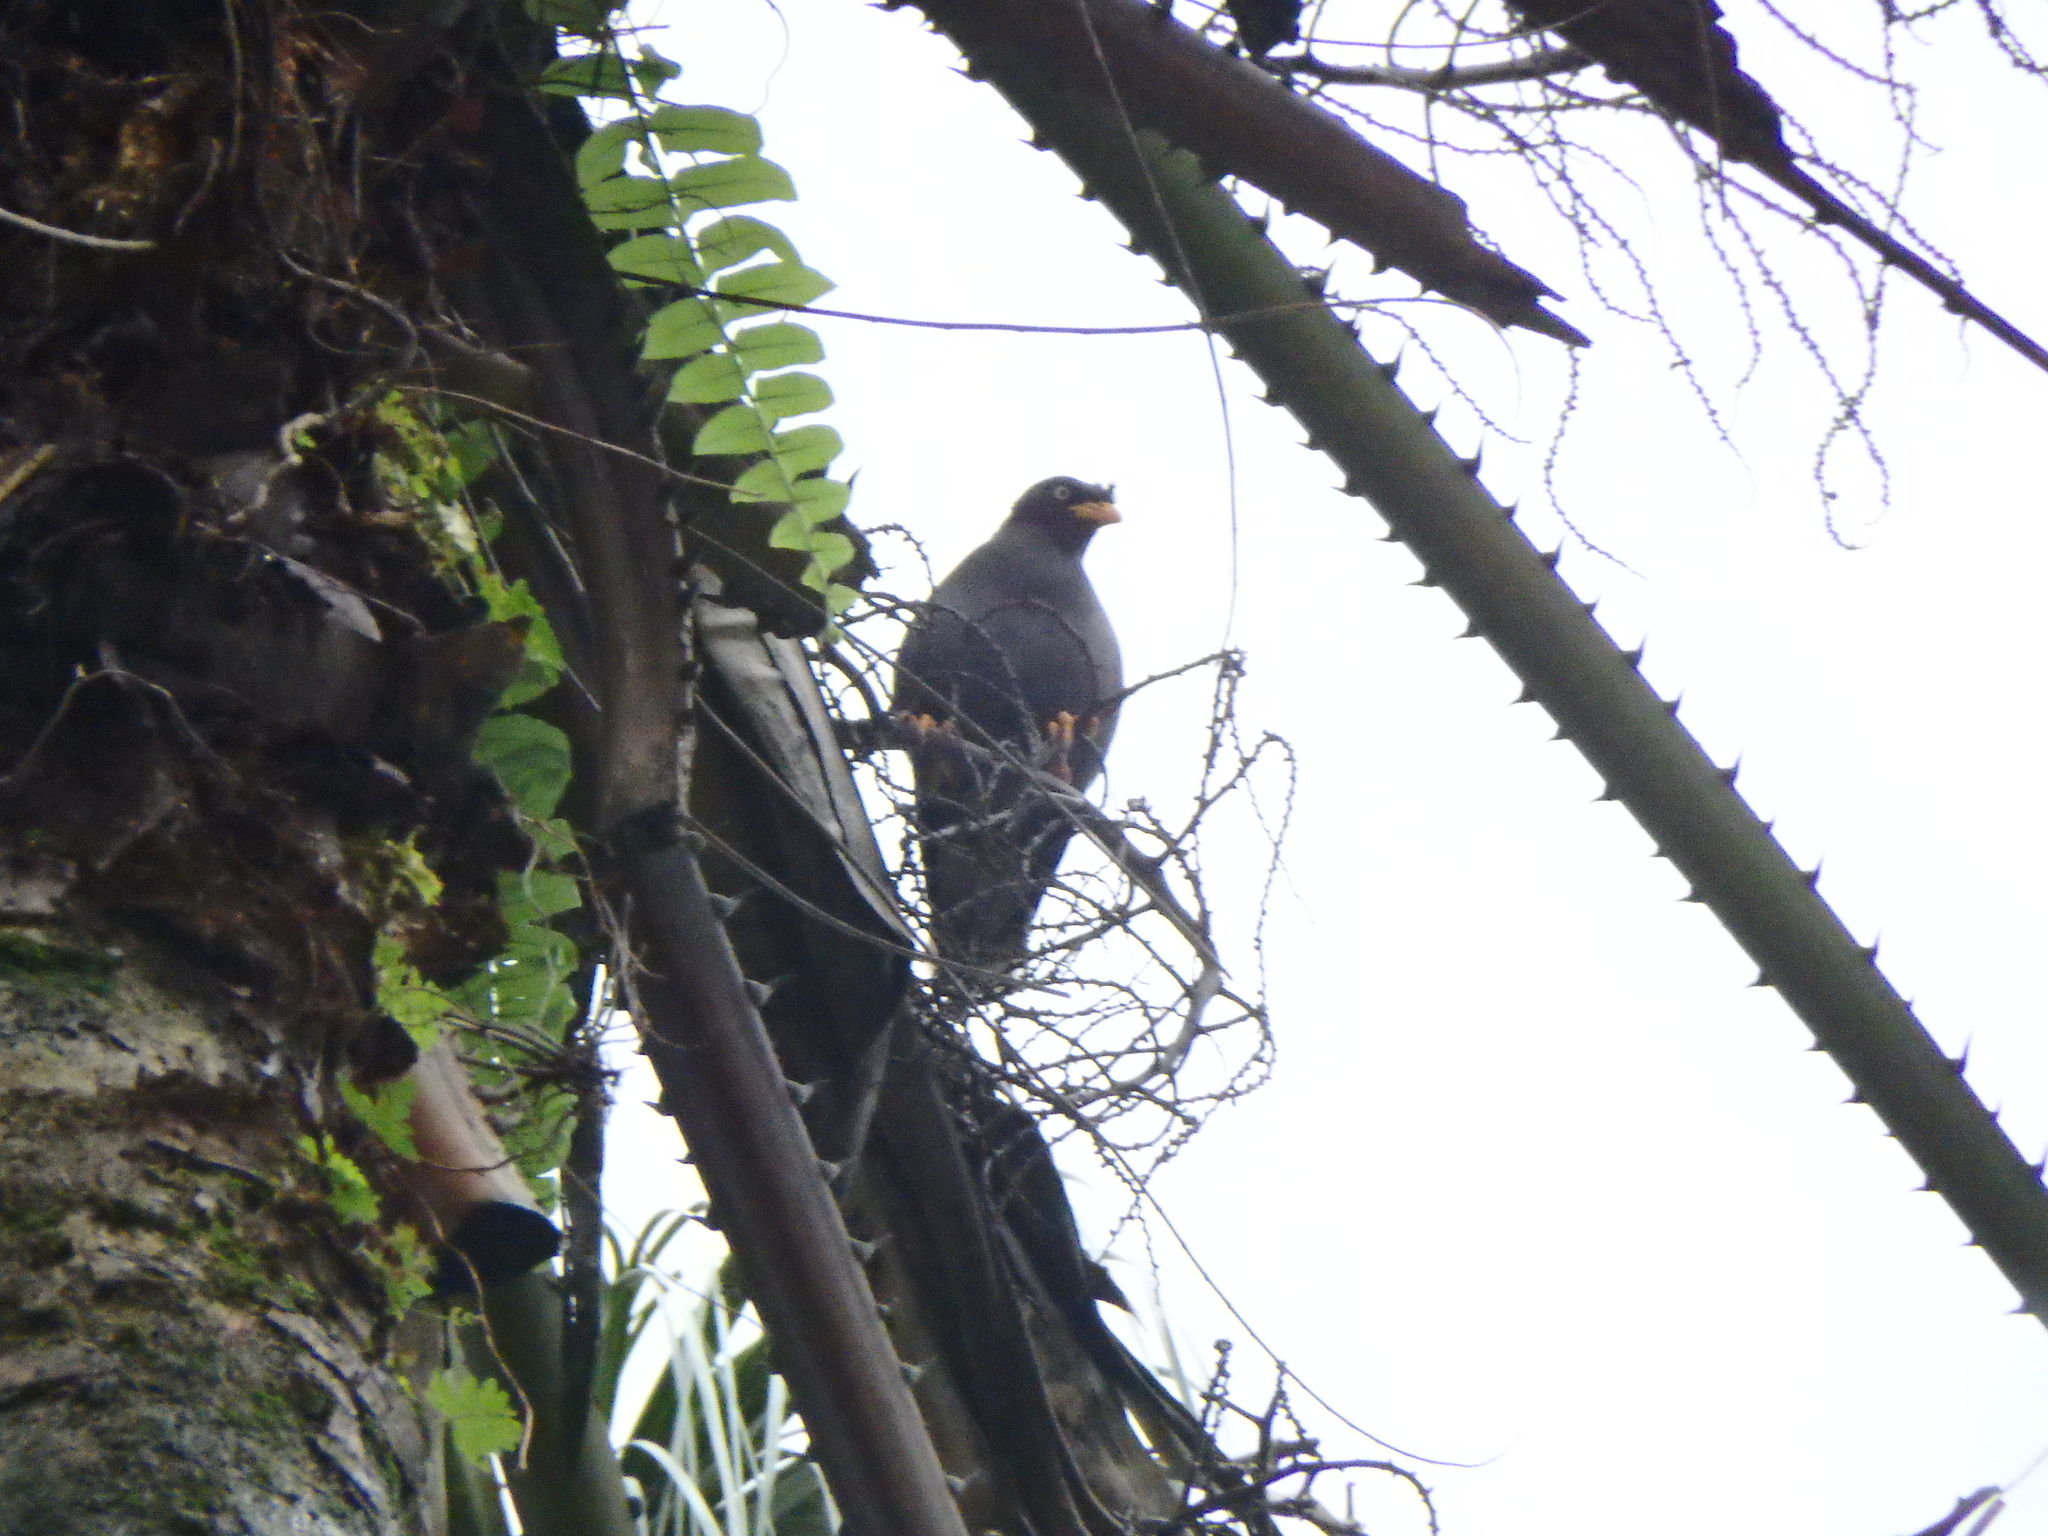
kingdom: Animalia
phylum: Chordata
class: Aves
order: Passeriformes
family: Sturnidae
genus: Acridotheres
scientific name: Acridotheres javanicus
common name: Javan myna
